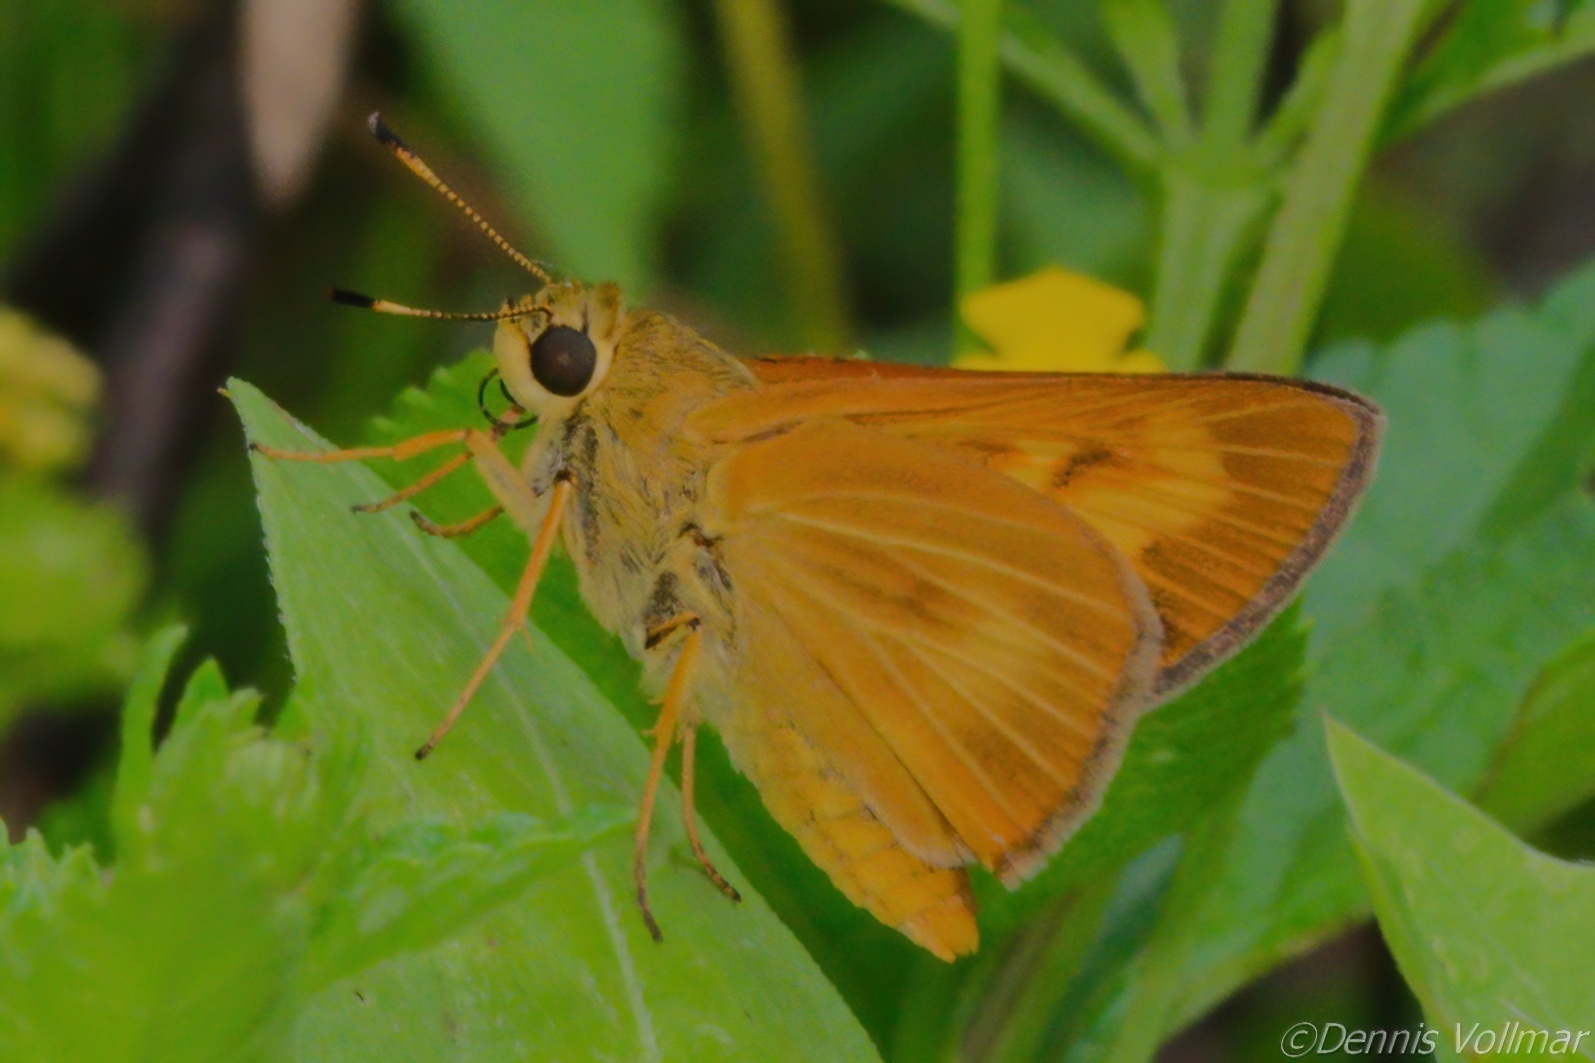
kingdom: Animalia
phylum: Arthropoda
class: Insecta
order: Lepidoptera
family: Hesperiidae
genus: Problema
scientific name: Problema byssus
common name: Byssus skipper
